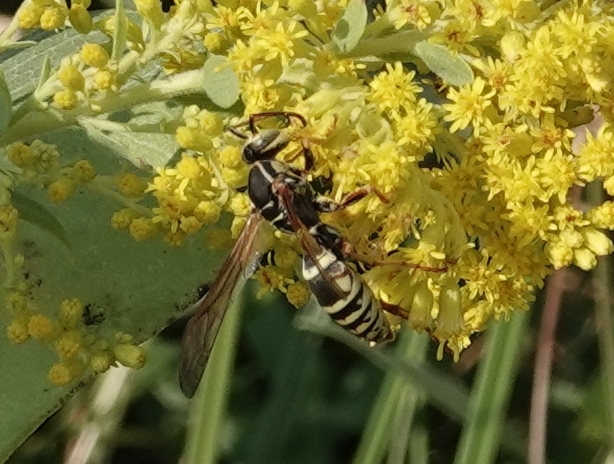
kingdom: Animalia
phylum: Arthropoda
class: Insecta
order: Hymenoptera
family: Eumenidae
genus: Polistes
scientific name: Polistes fuscatus
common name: Dark paper wasp
